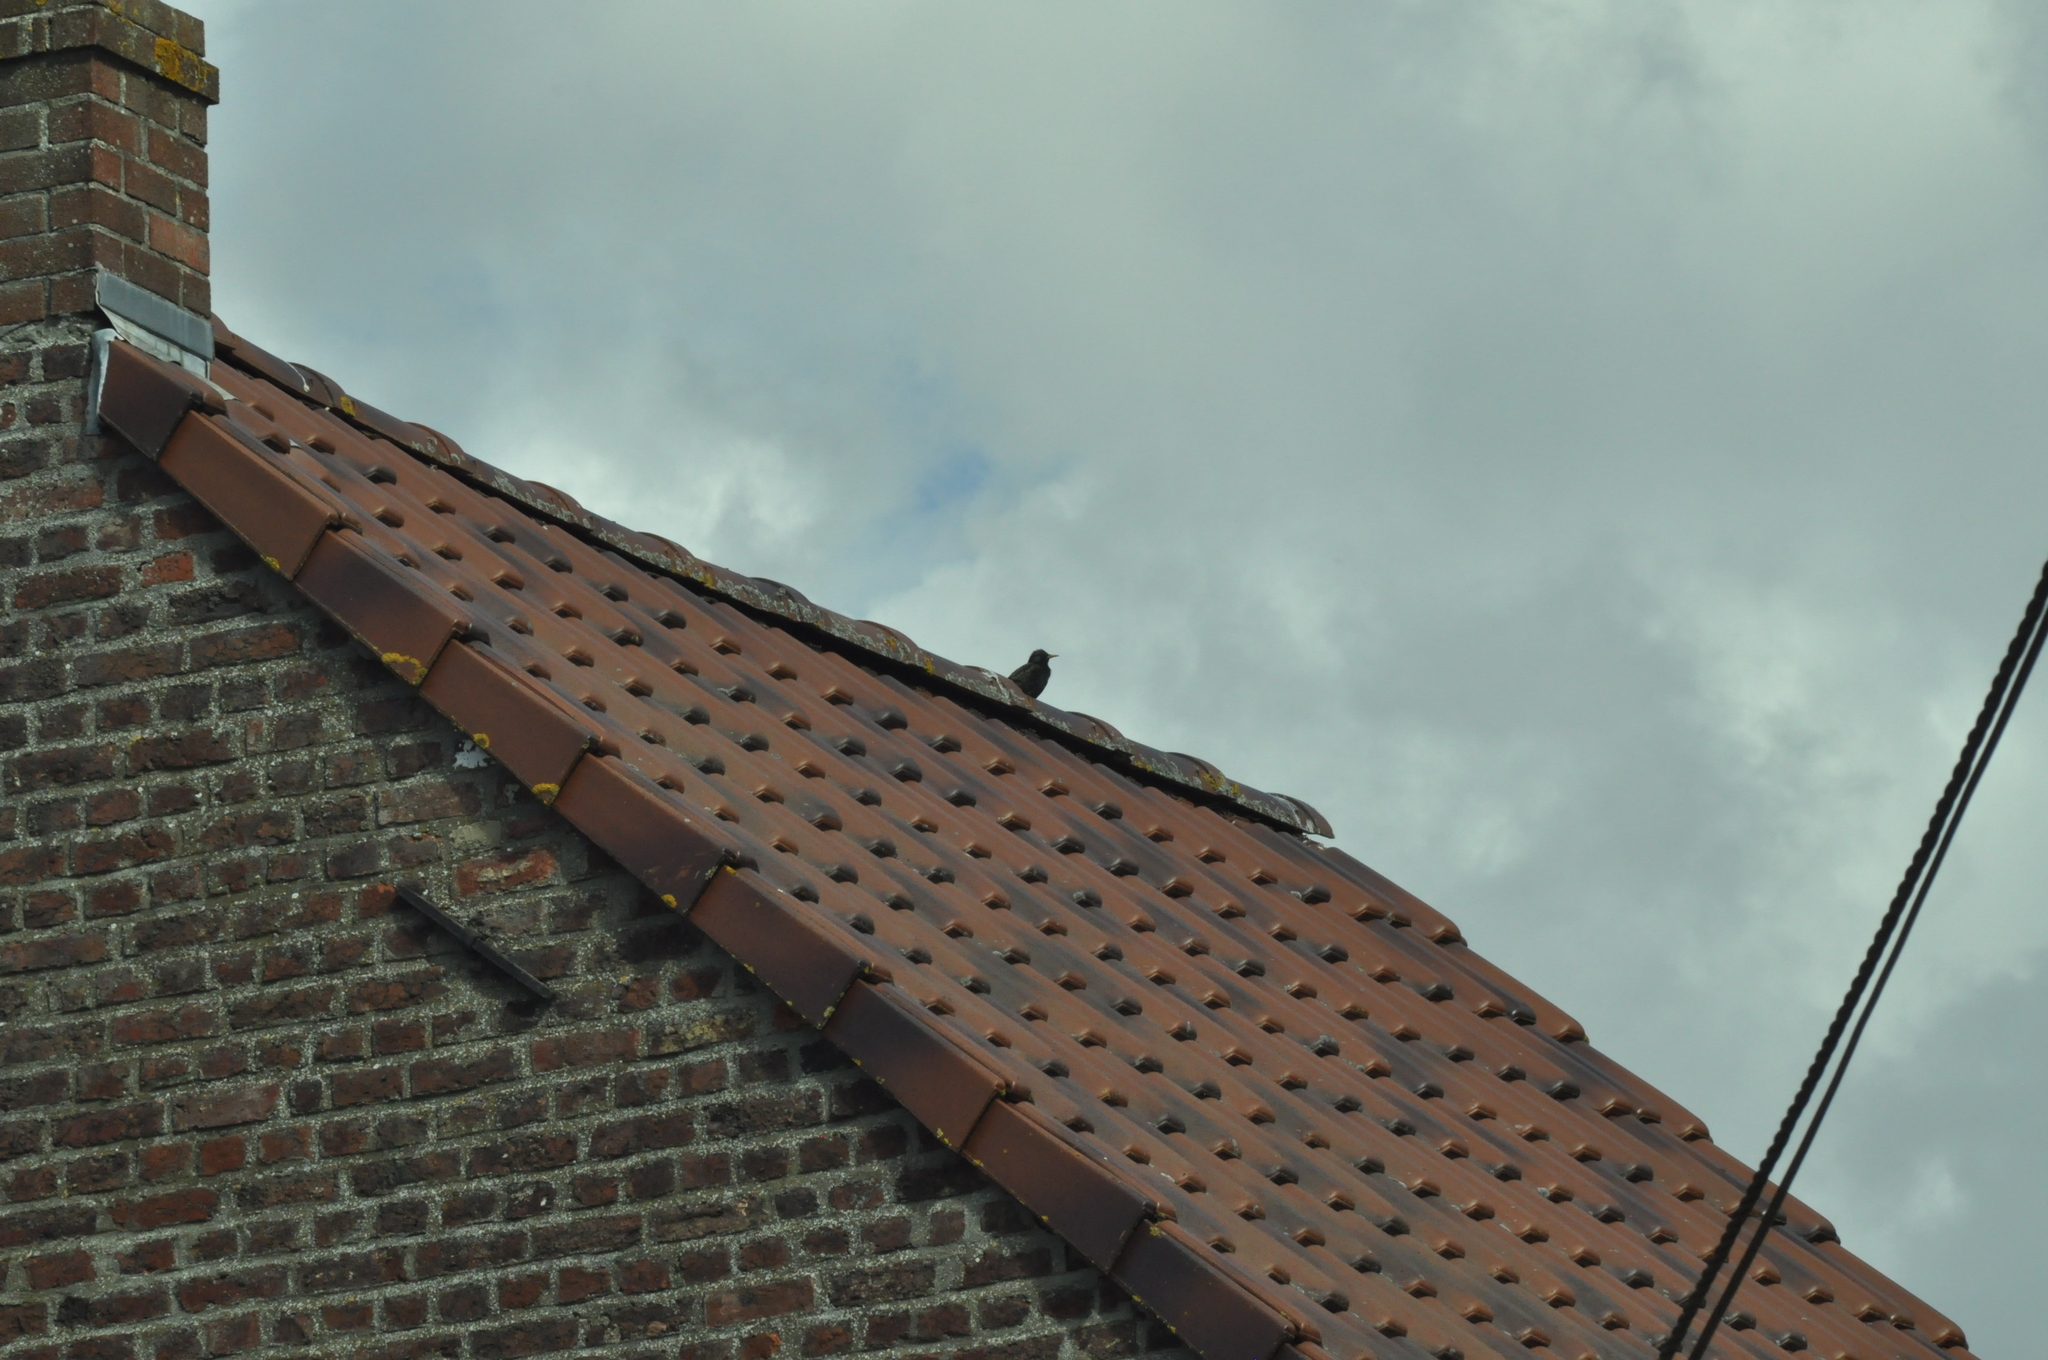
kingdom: Animalia
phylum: Chordata
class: Aves
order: Passeriformes
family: Sturnidae
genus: Sturnus
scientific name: Sturnus vulgaris
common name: Common starling
